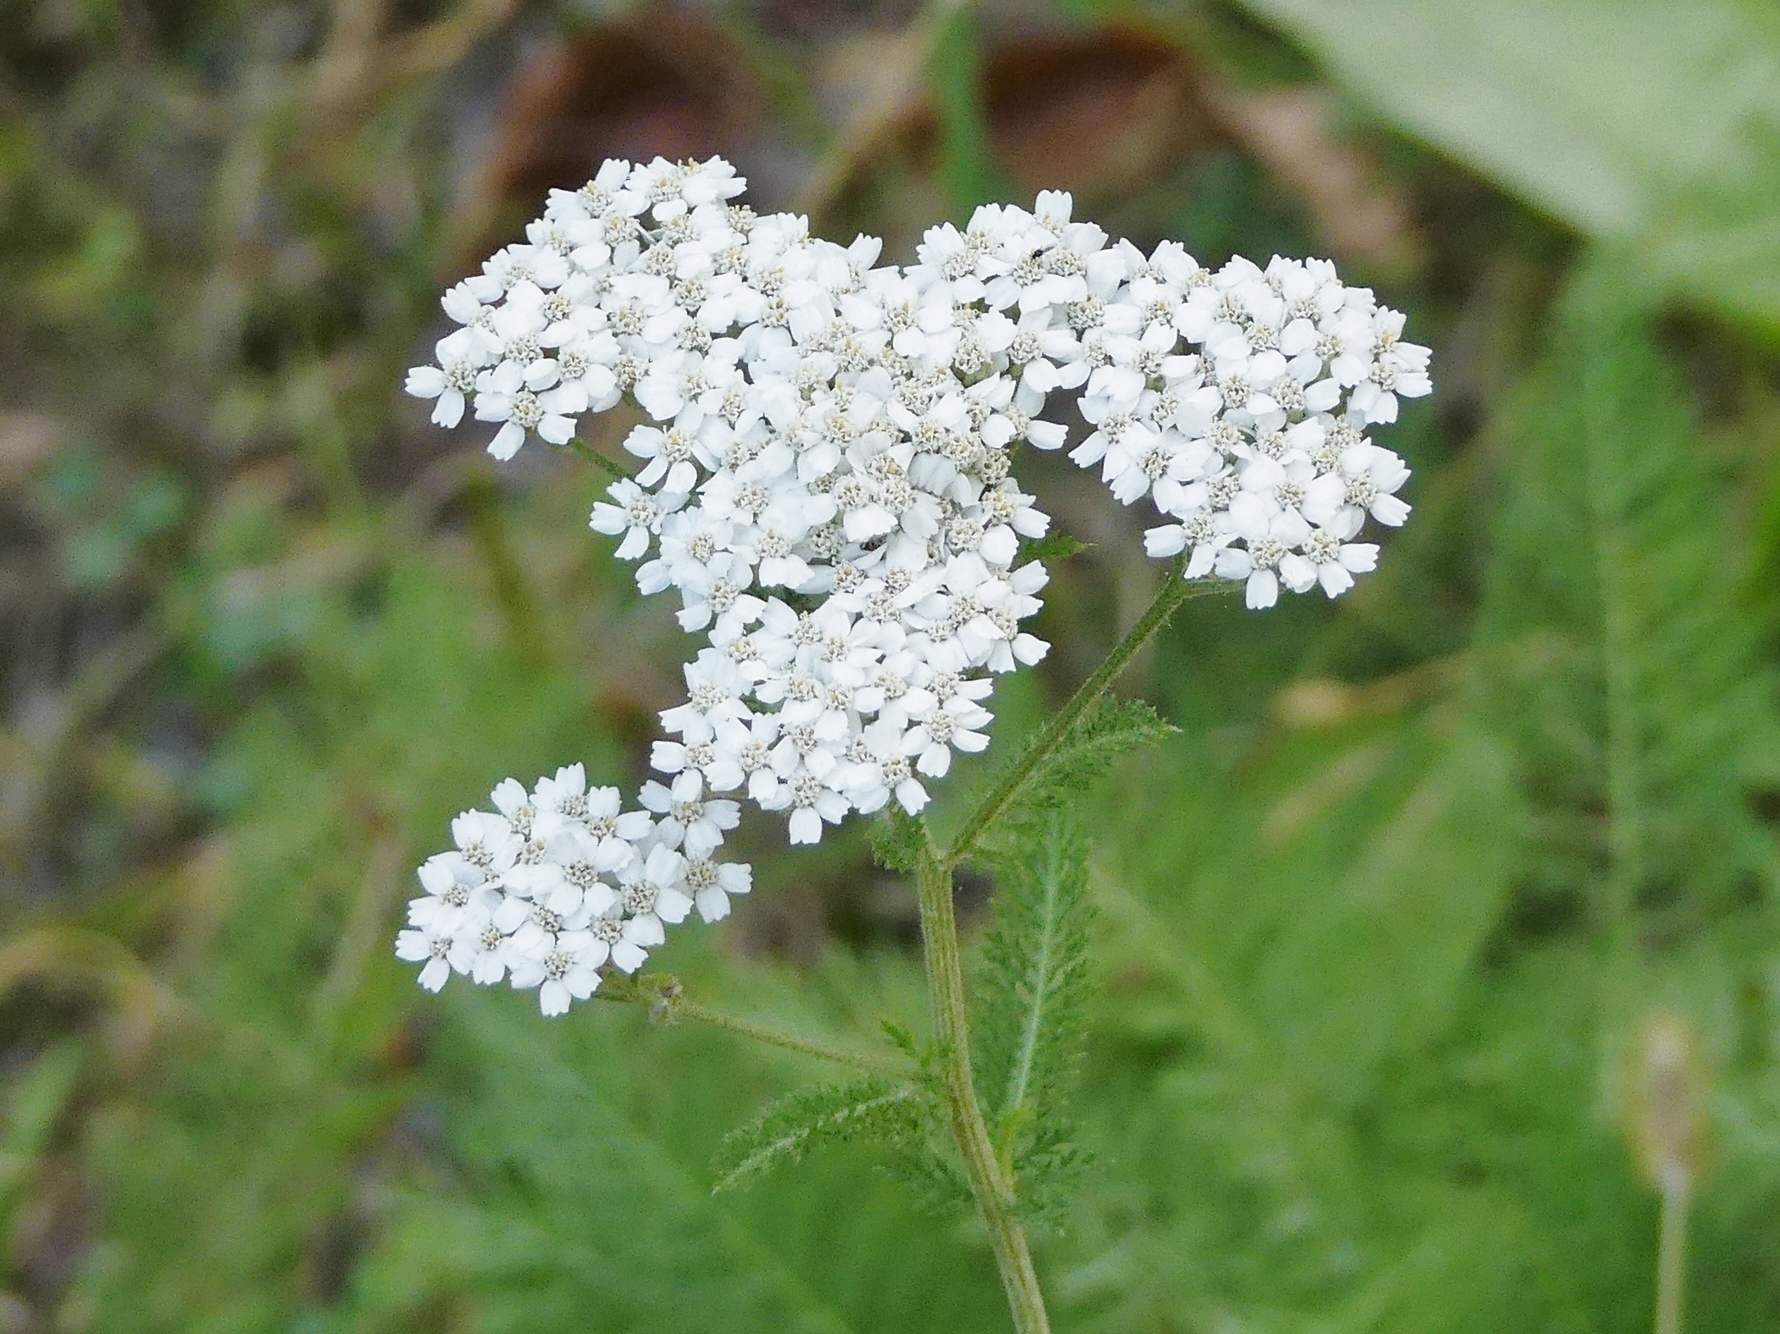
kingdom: Plantae
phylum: Tracheophyta
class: Magnoliopsida
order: Asterales
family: Asteraceae
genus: Achillea
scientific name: Achillea millefolium
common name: Yarrow
